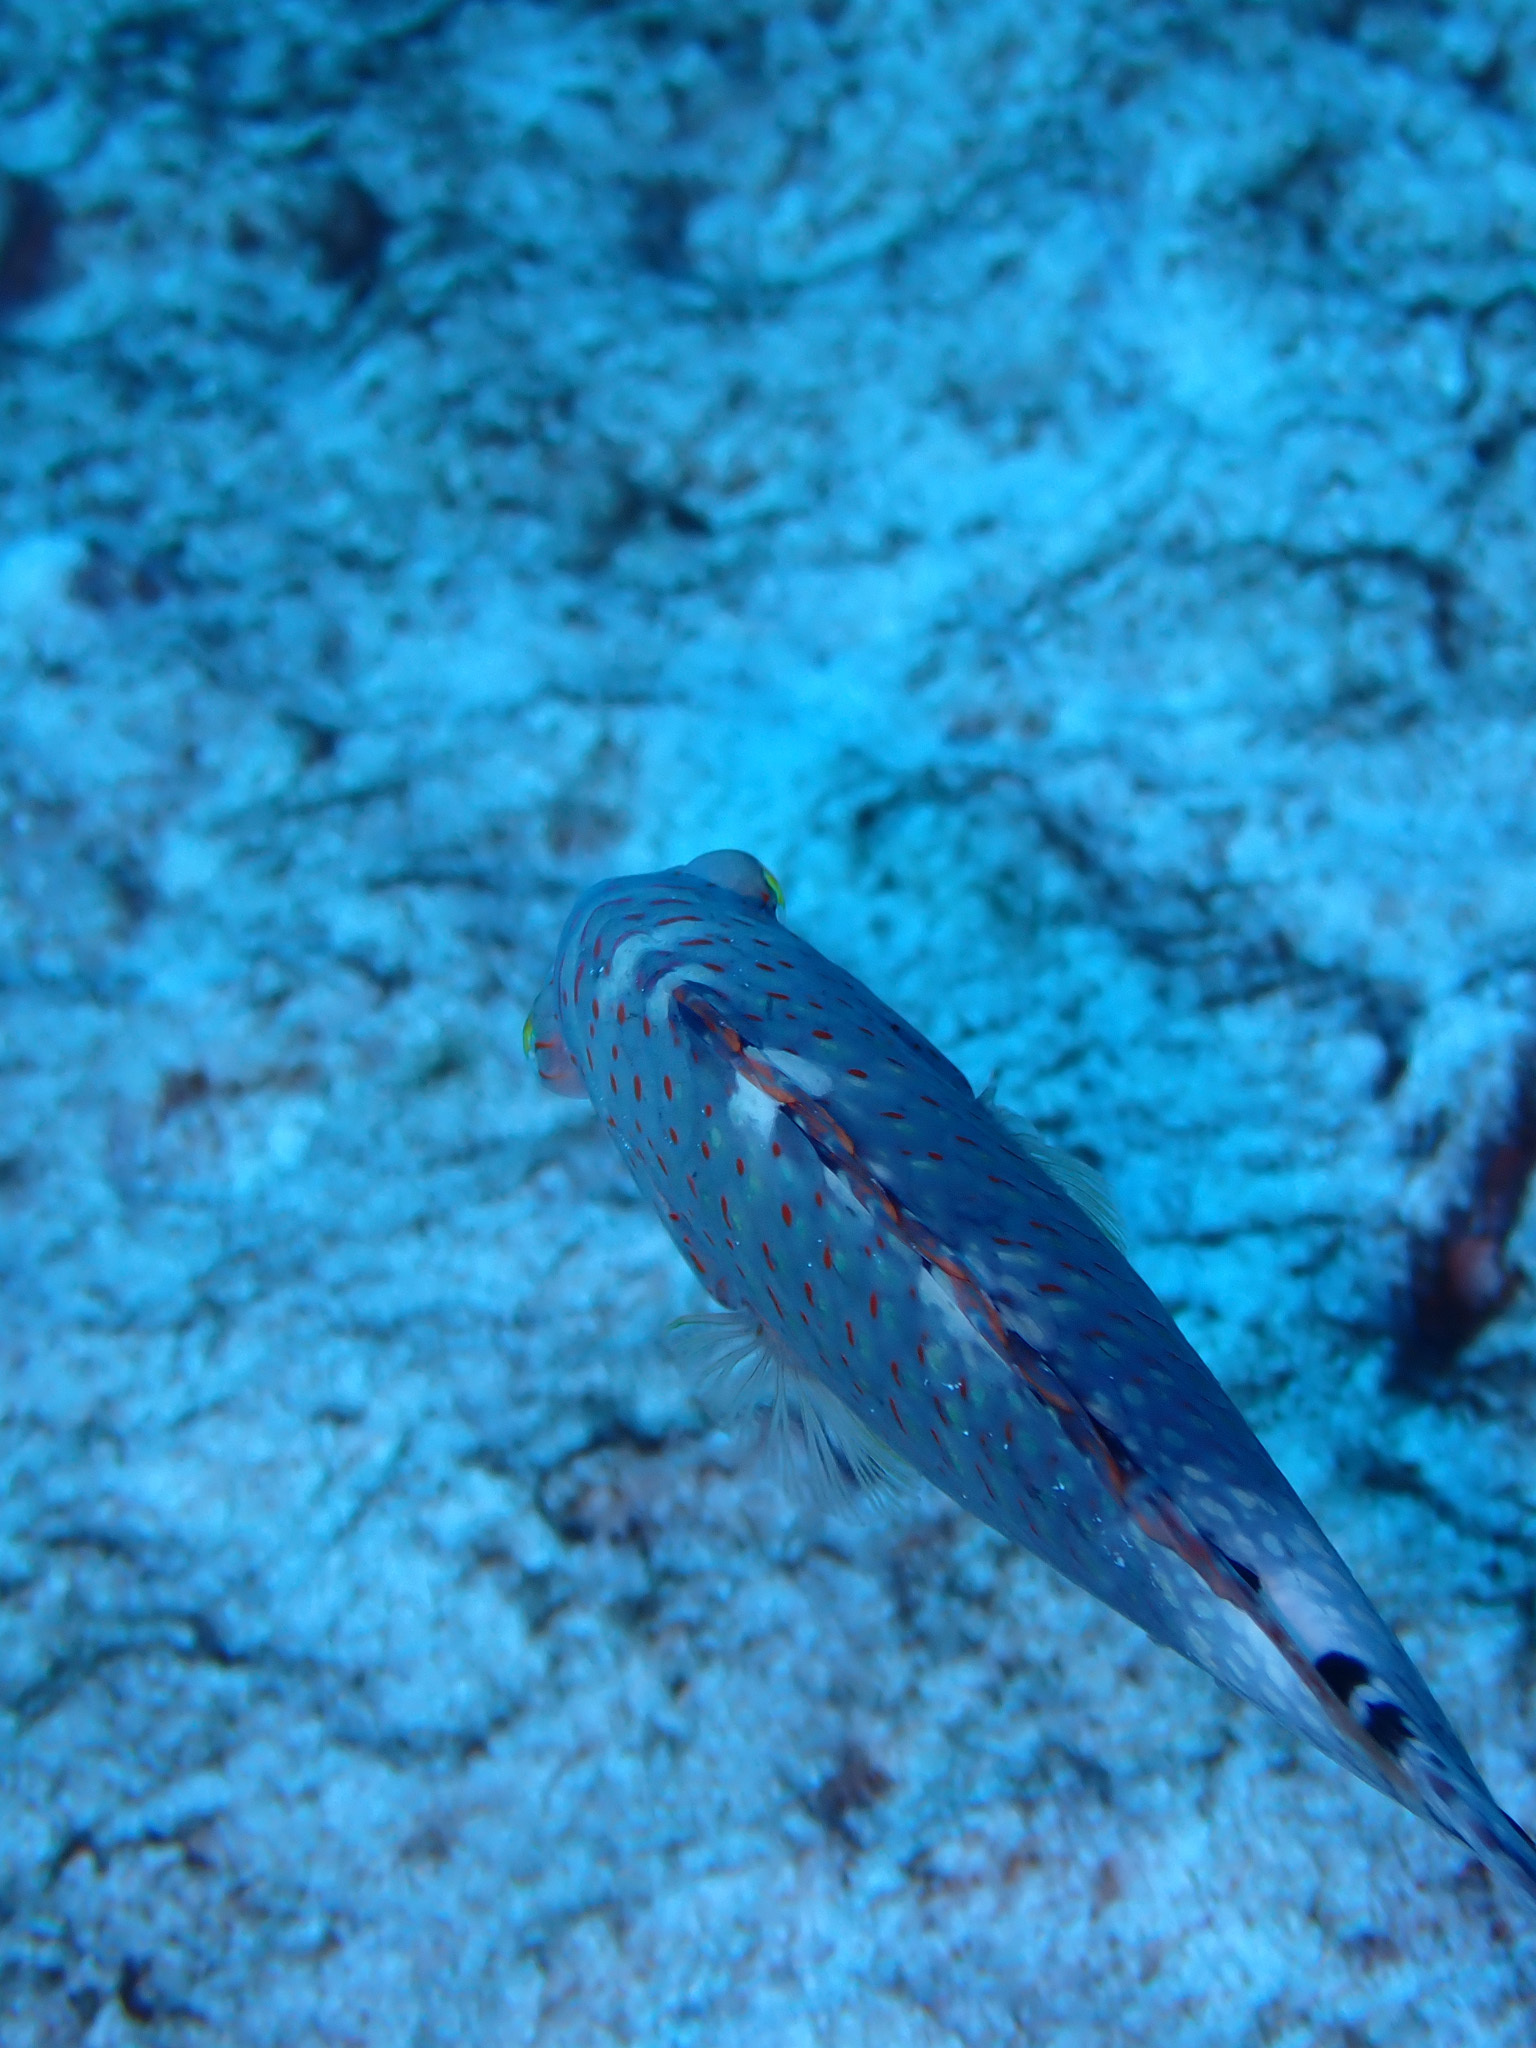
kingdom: Animalia
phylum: Chordata
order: Perciformes
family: Labridae
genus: Cheilinus
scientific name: Cheilinus abudjubbe
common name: Abudjubbe’s splendor wrasse
